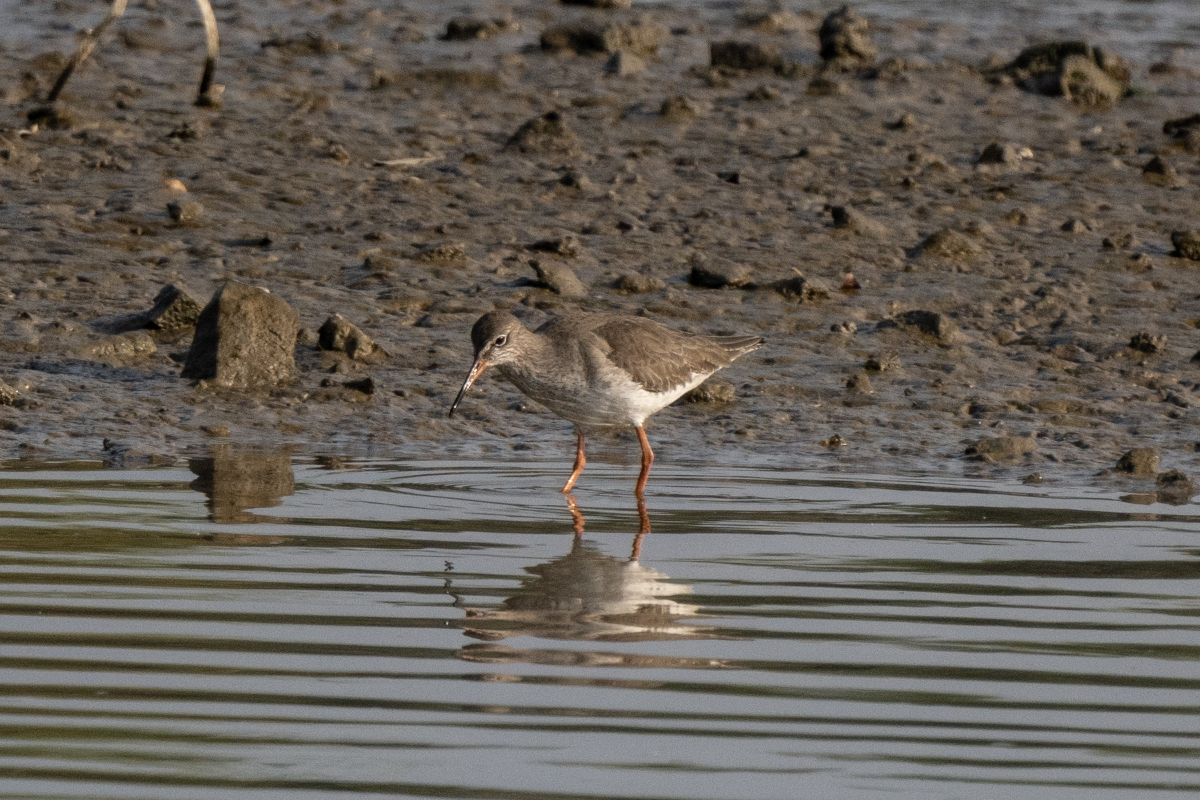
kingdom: Animalia
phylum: Chordata
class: Aves
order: Charadriiformes
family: Scolopacidae
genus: Tringa
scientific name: Tringa totanus
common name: Common redshank
